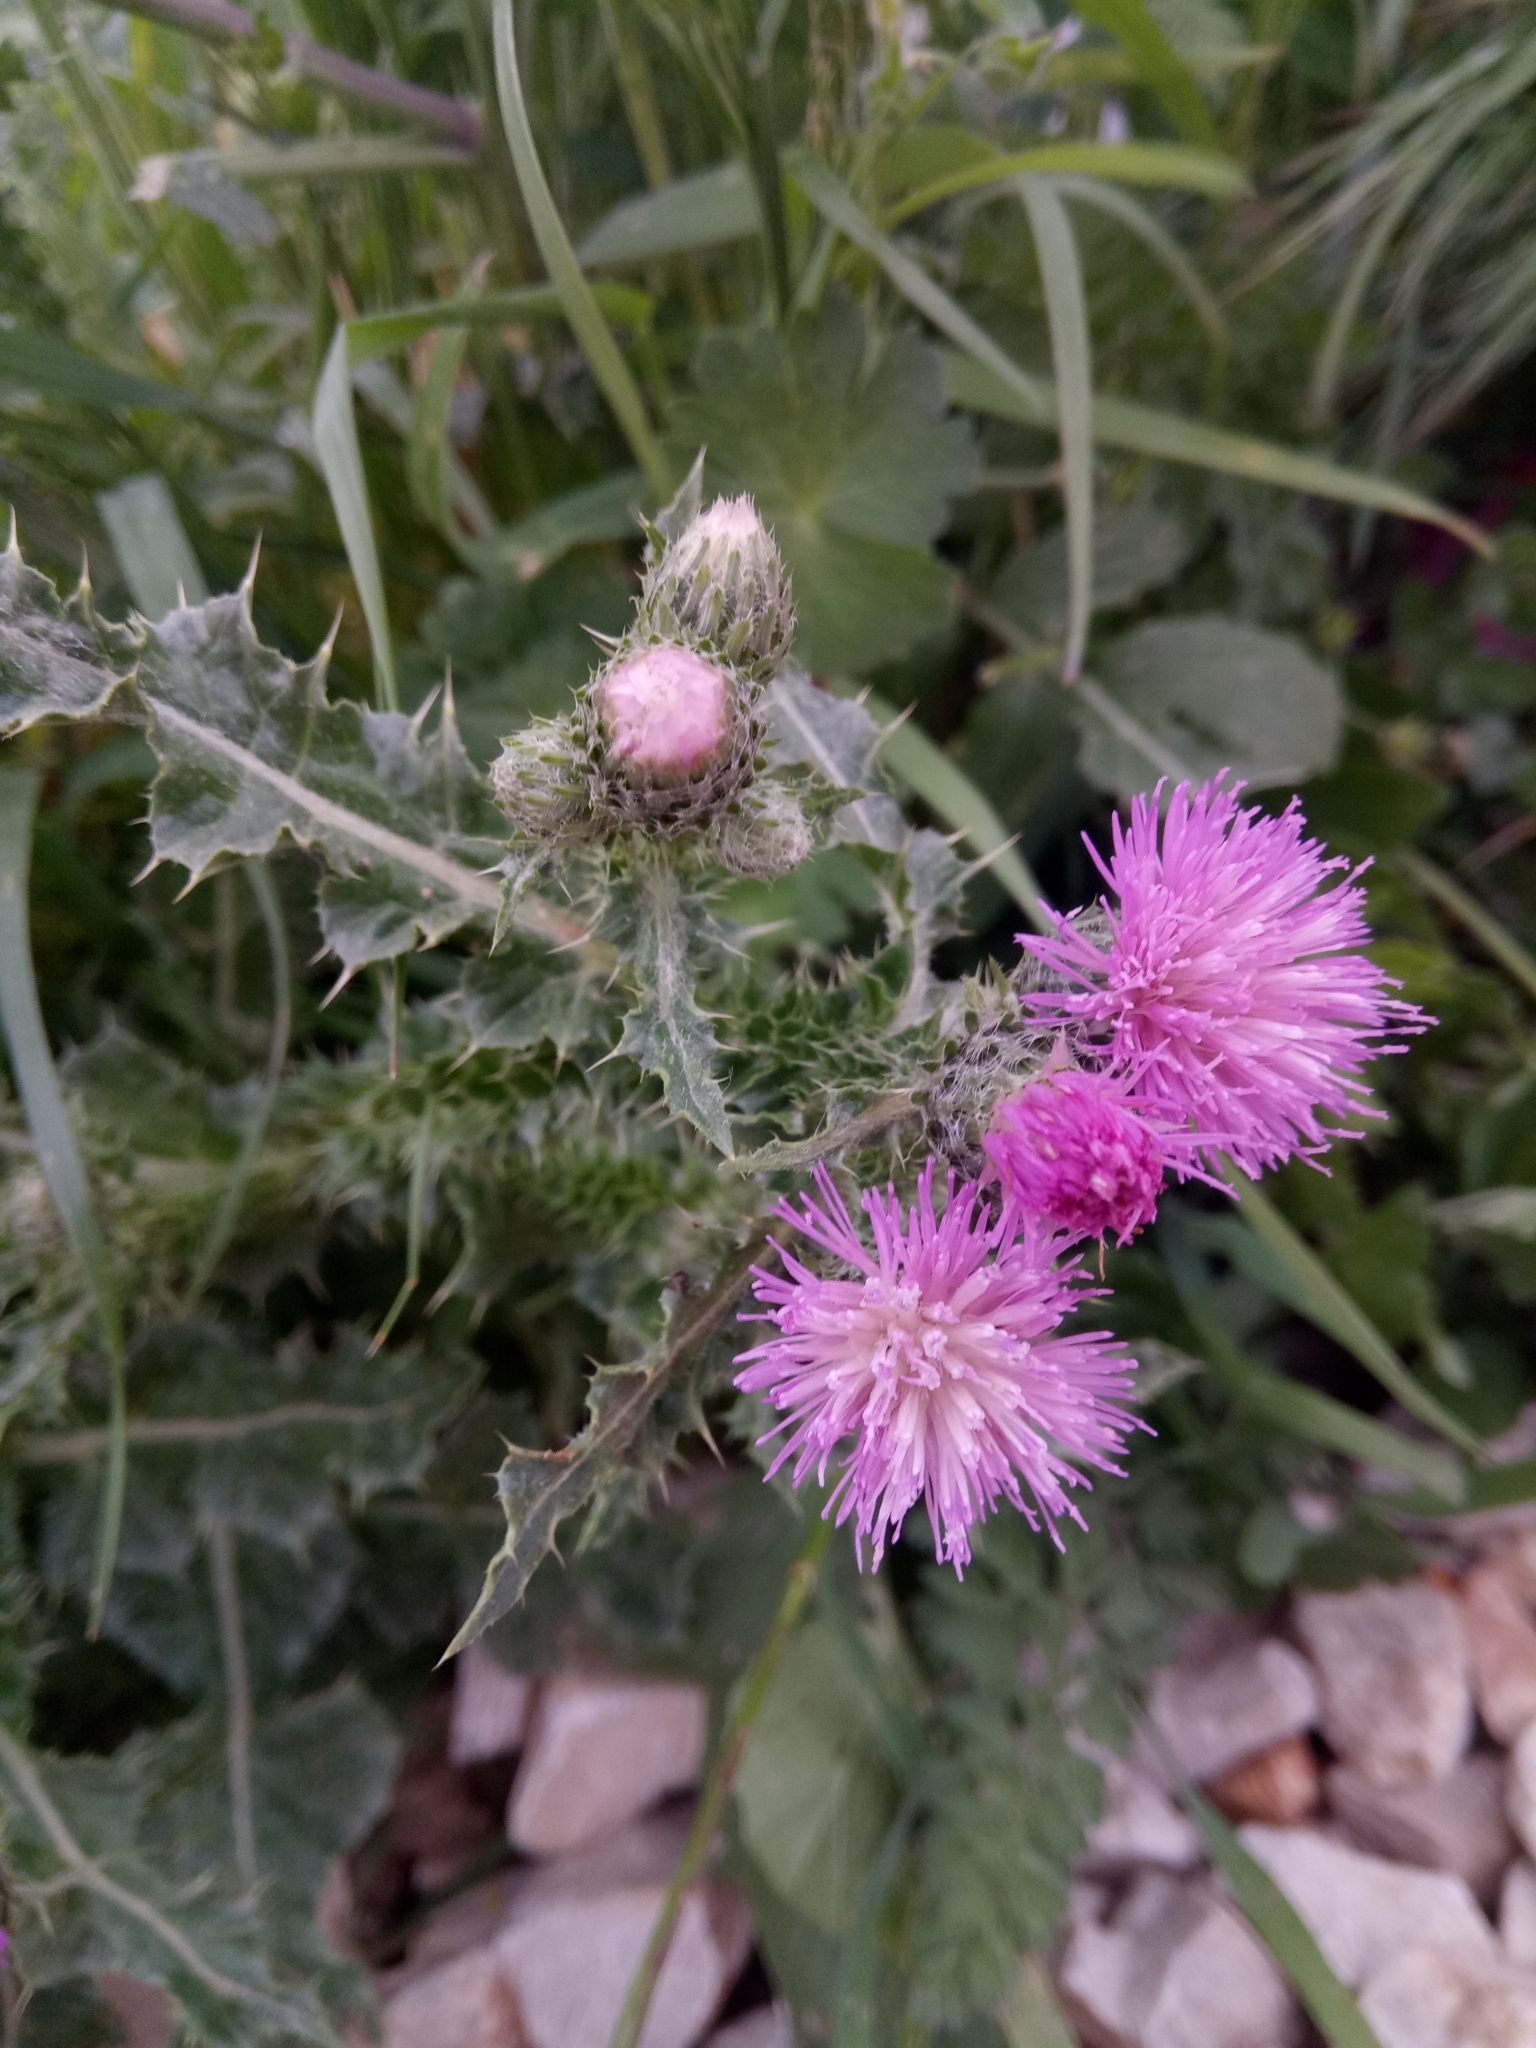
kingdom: Plantae
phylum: Tracheophyta
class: Magnoliopsida
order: Asterales
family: Asteraceae
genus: Carduus
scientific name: Carduus spachianus
